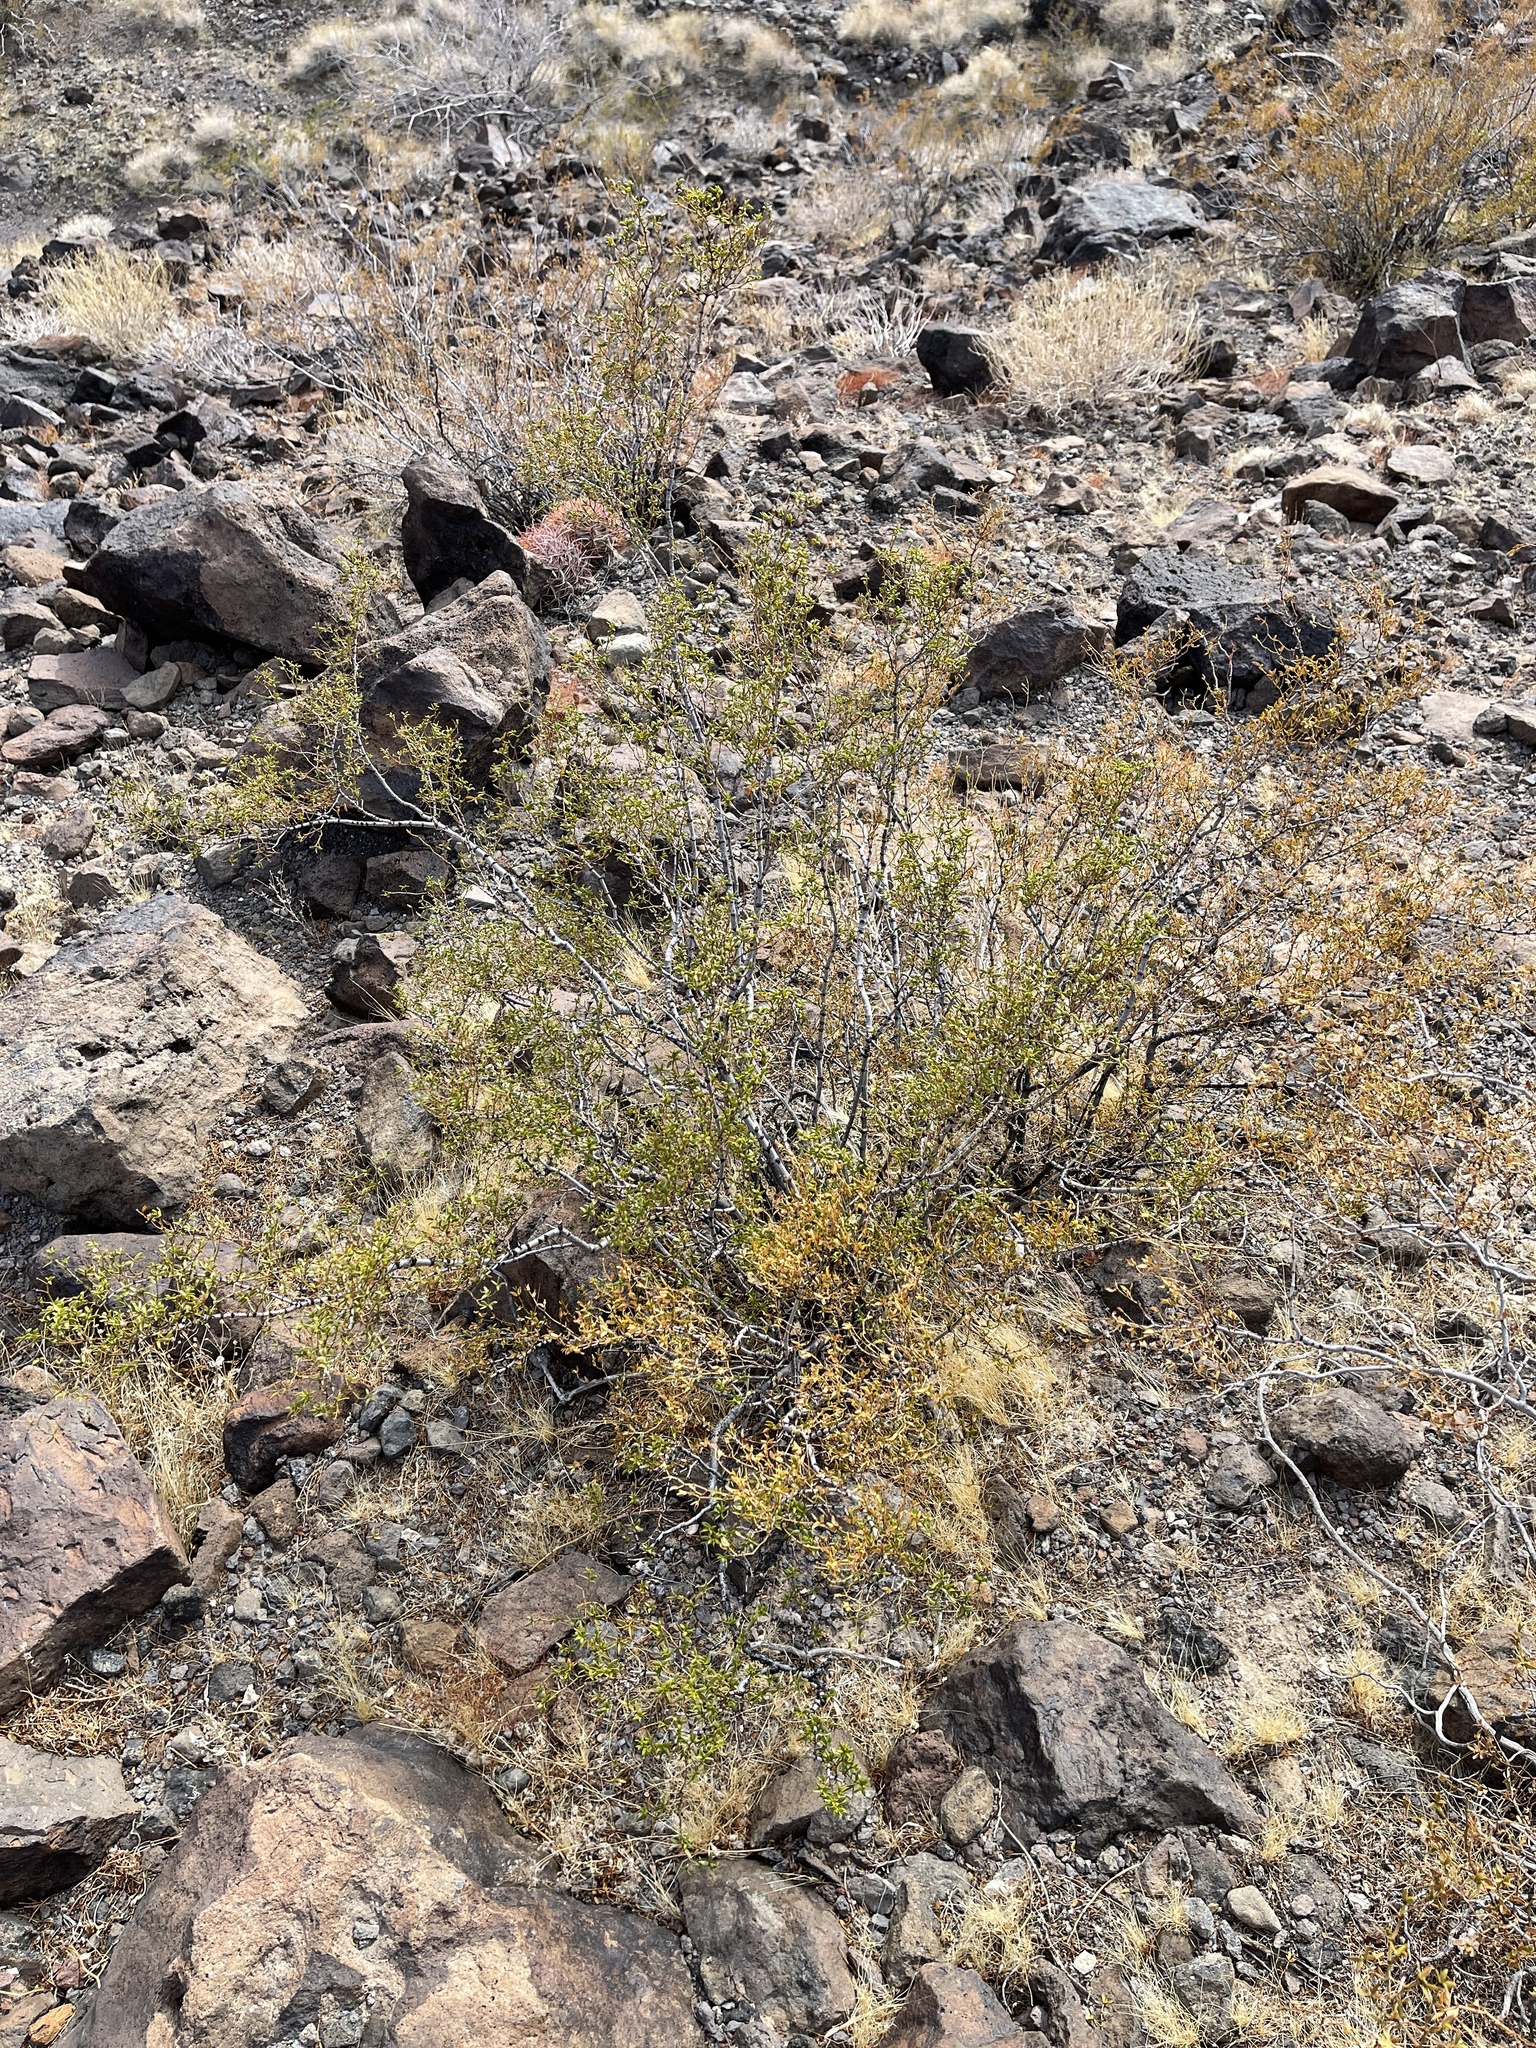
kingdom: Plantae
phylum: Tracheophyta
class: Magnoliopsida
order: Zygophyllales
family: Zygophyllaceae
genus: Larrea
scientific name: Larrea tridentata
